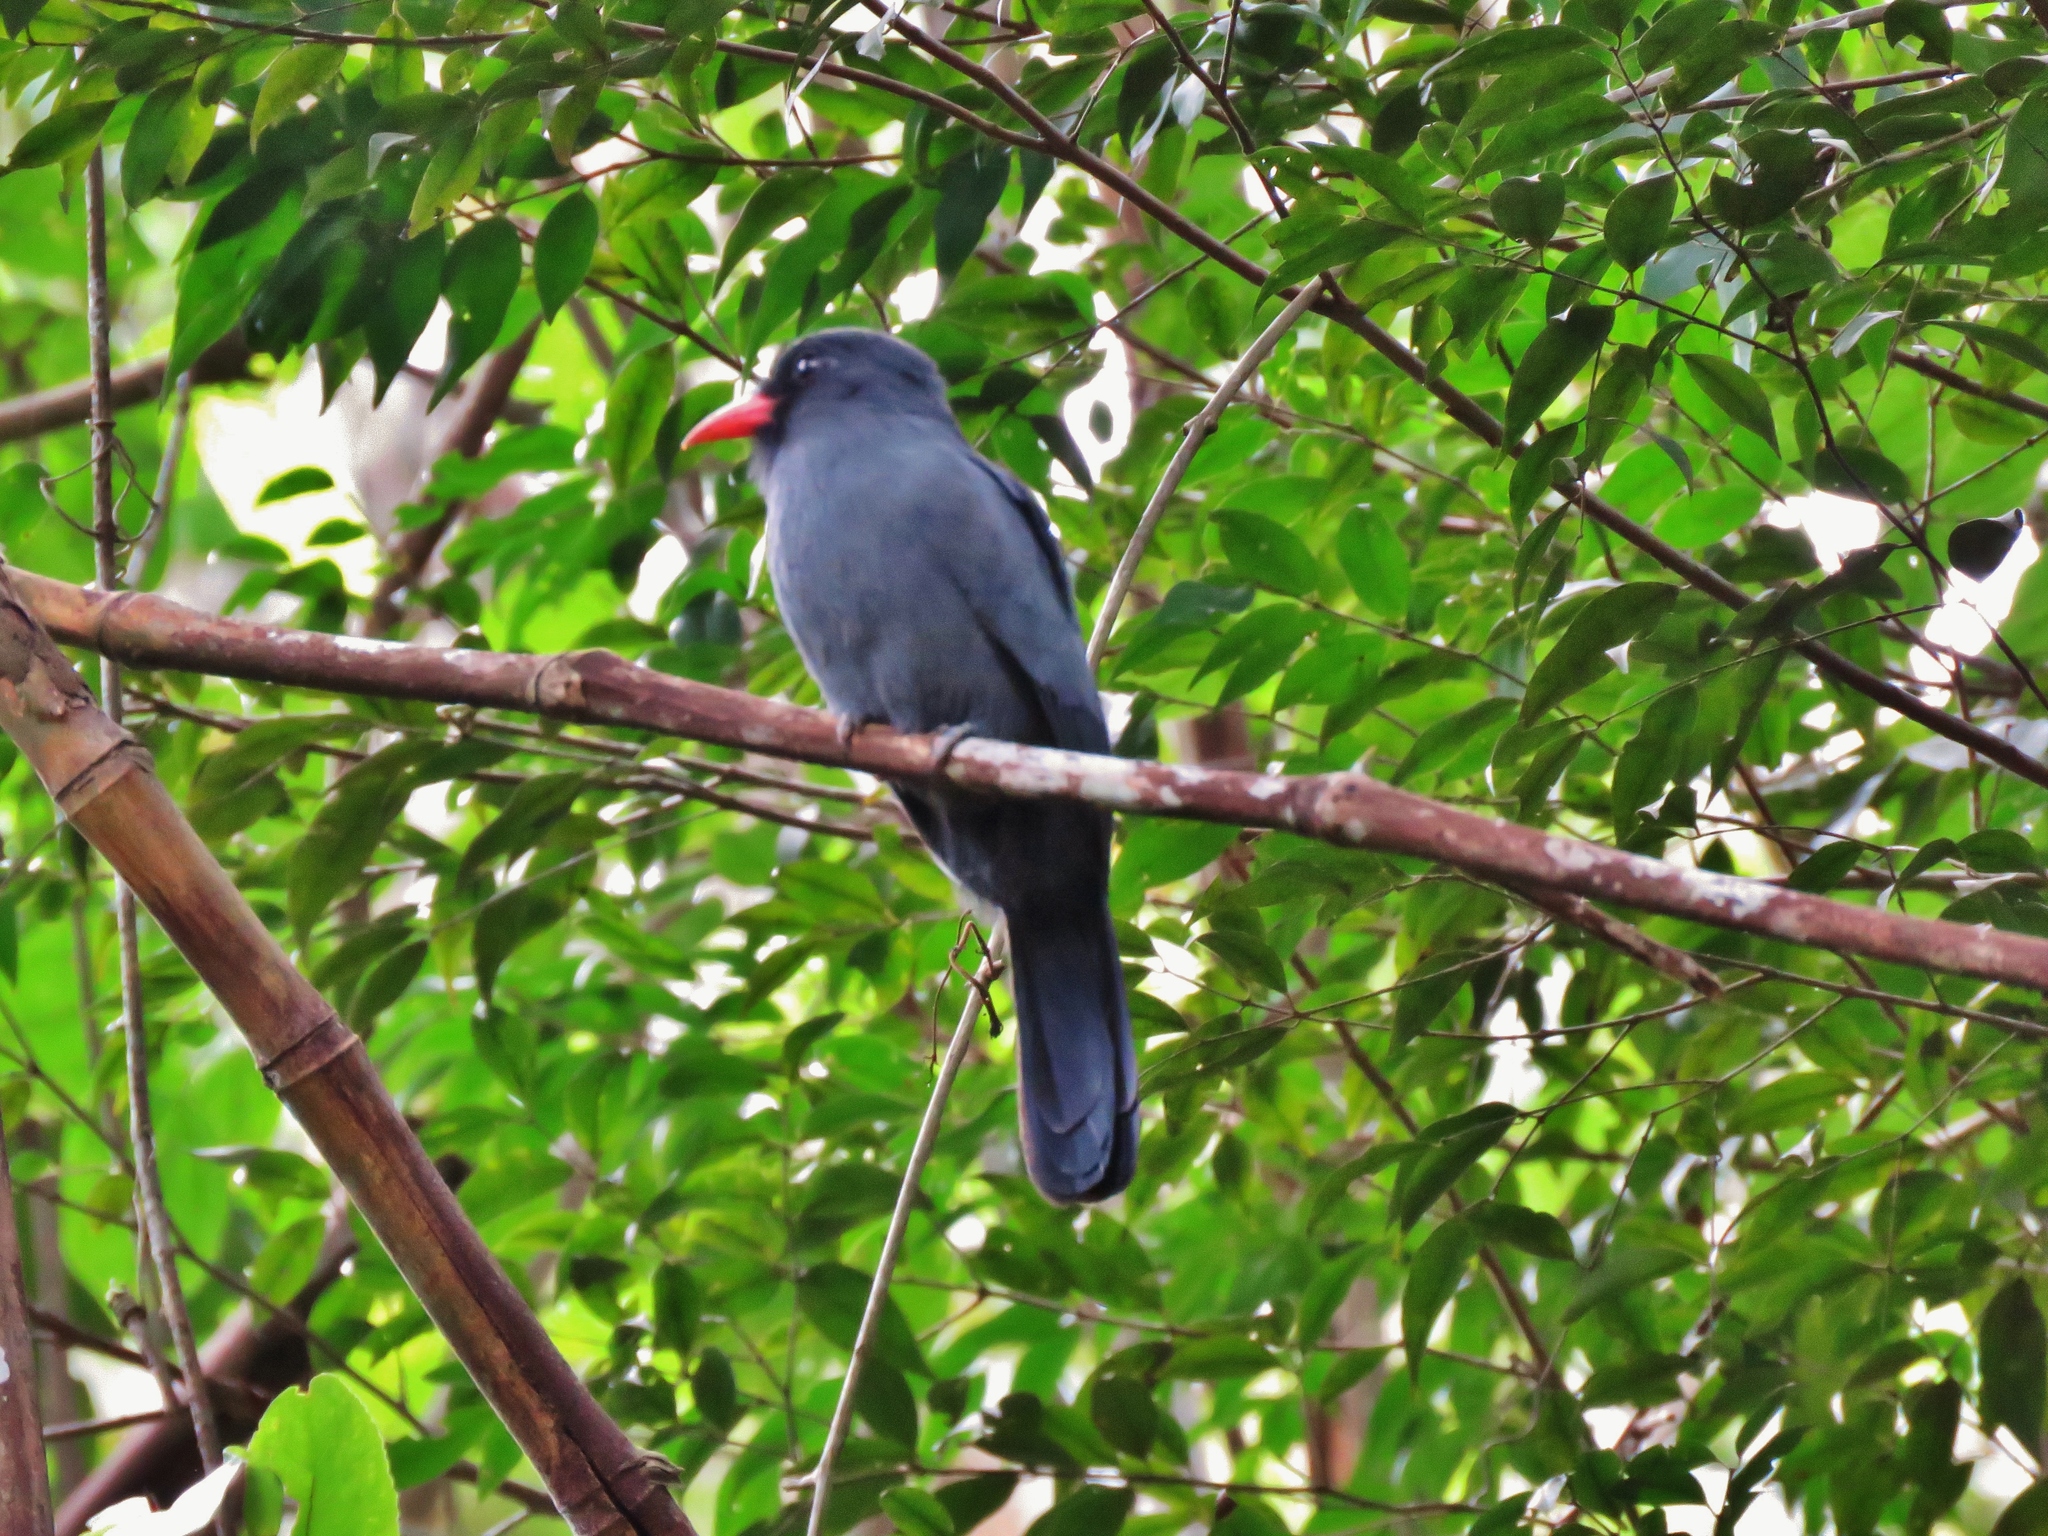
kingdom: Animalia
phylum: Chordata
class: Aves
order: Piciformes
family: Bucconidae
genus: Monasa
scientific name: Monasa nigrifrons
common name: Black-fronted nunbird
